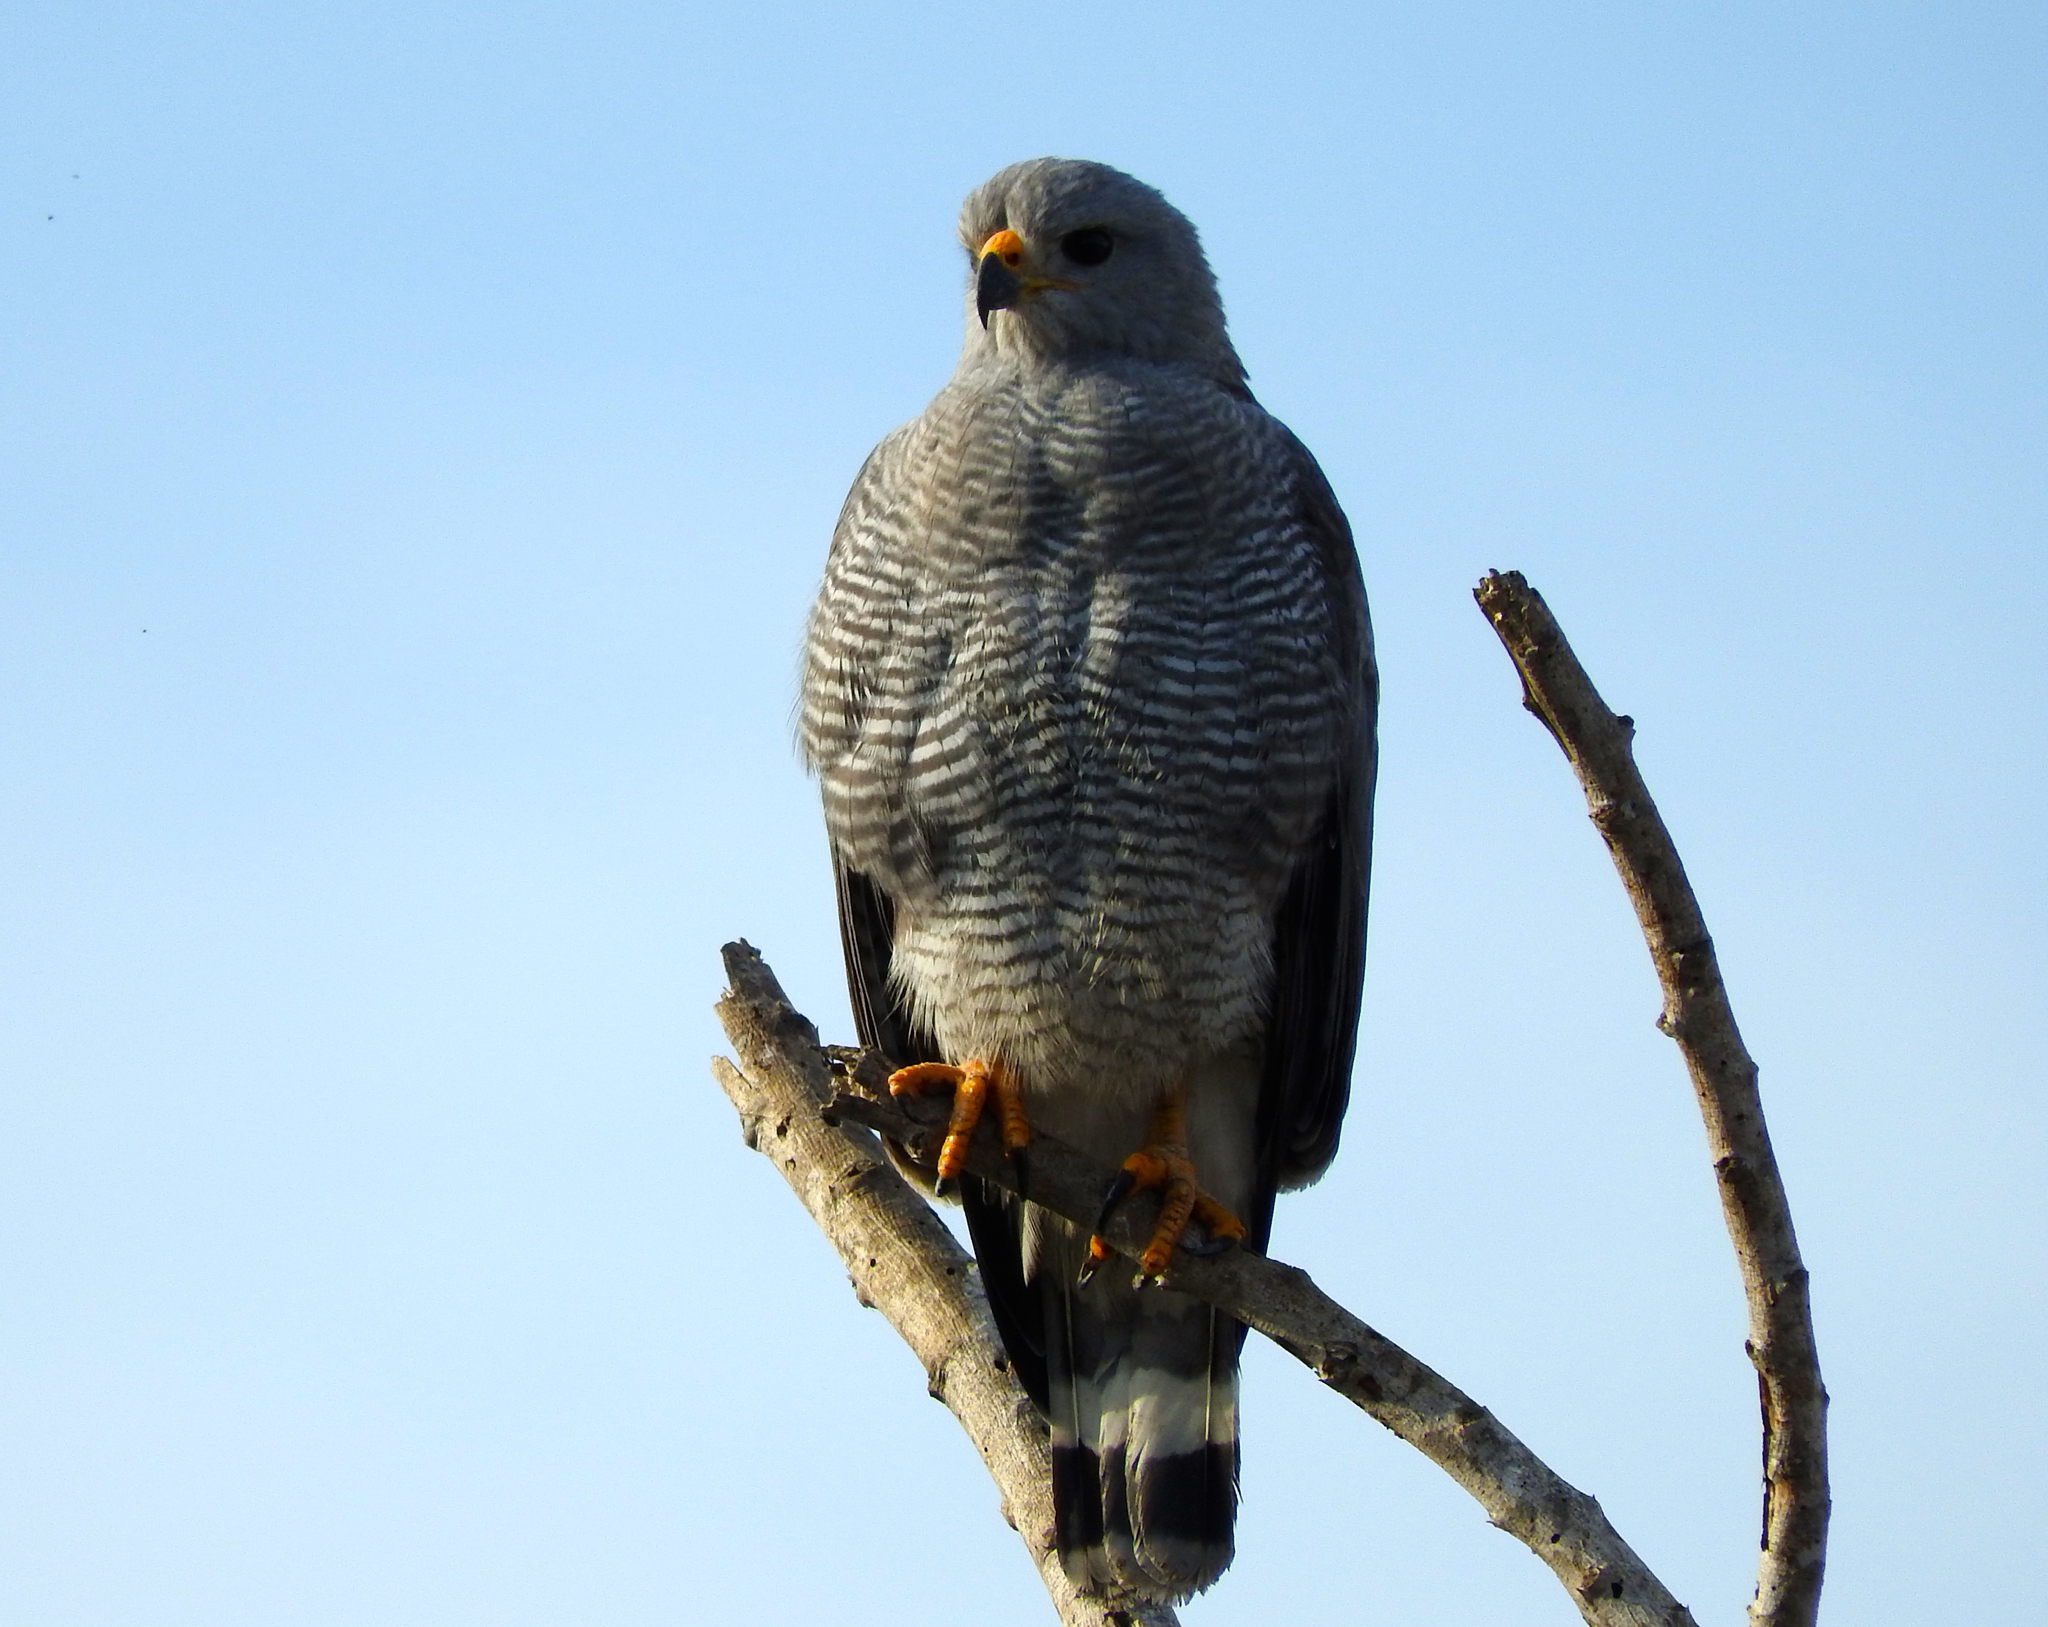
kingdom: Animalia
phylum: Chordata
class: Aves
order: Accipitriformes
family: Accipitridae
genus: Buteo
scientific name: Buteo nitidus
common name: Grey-lined hawk
